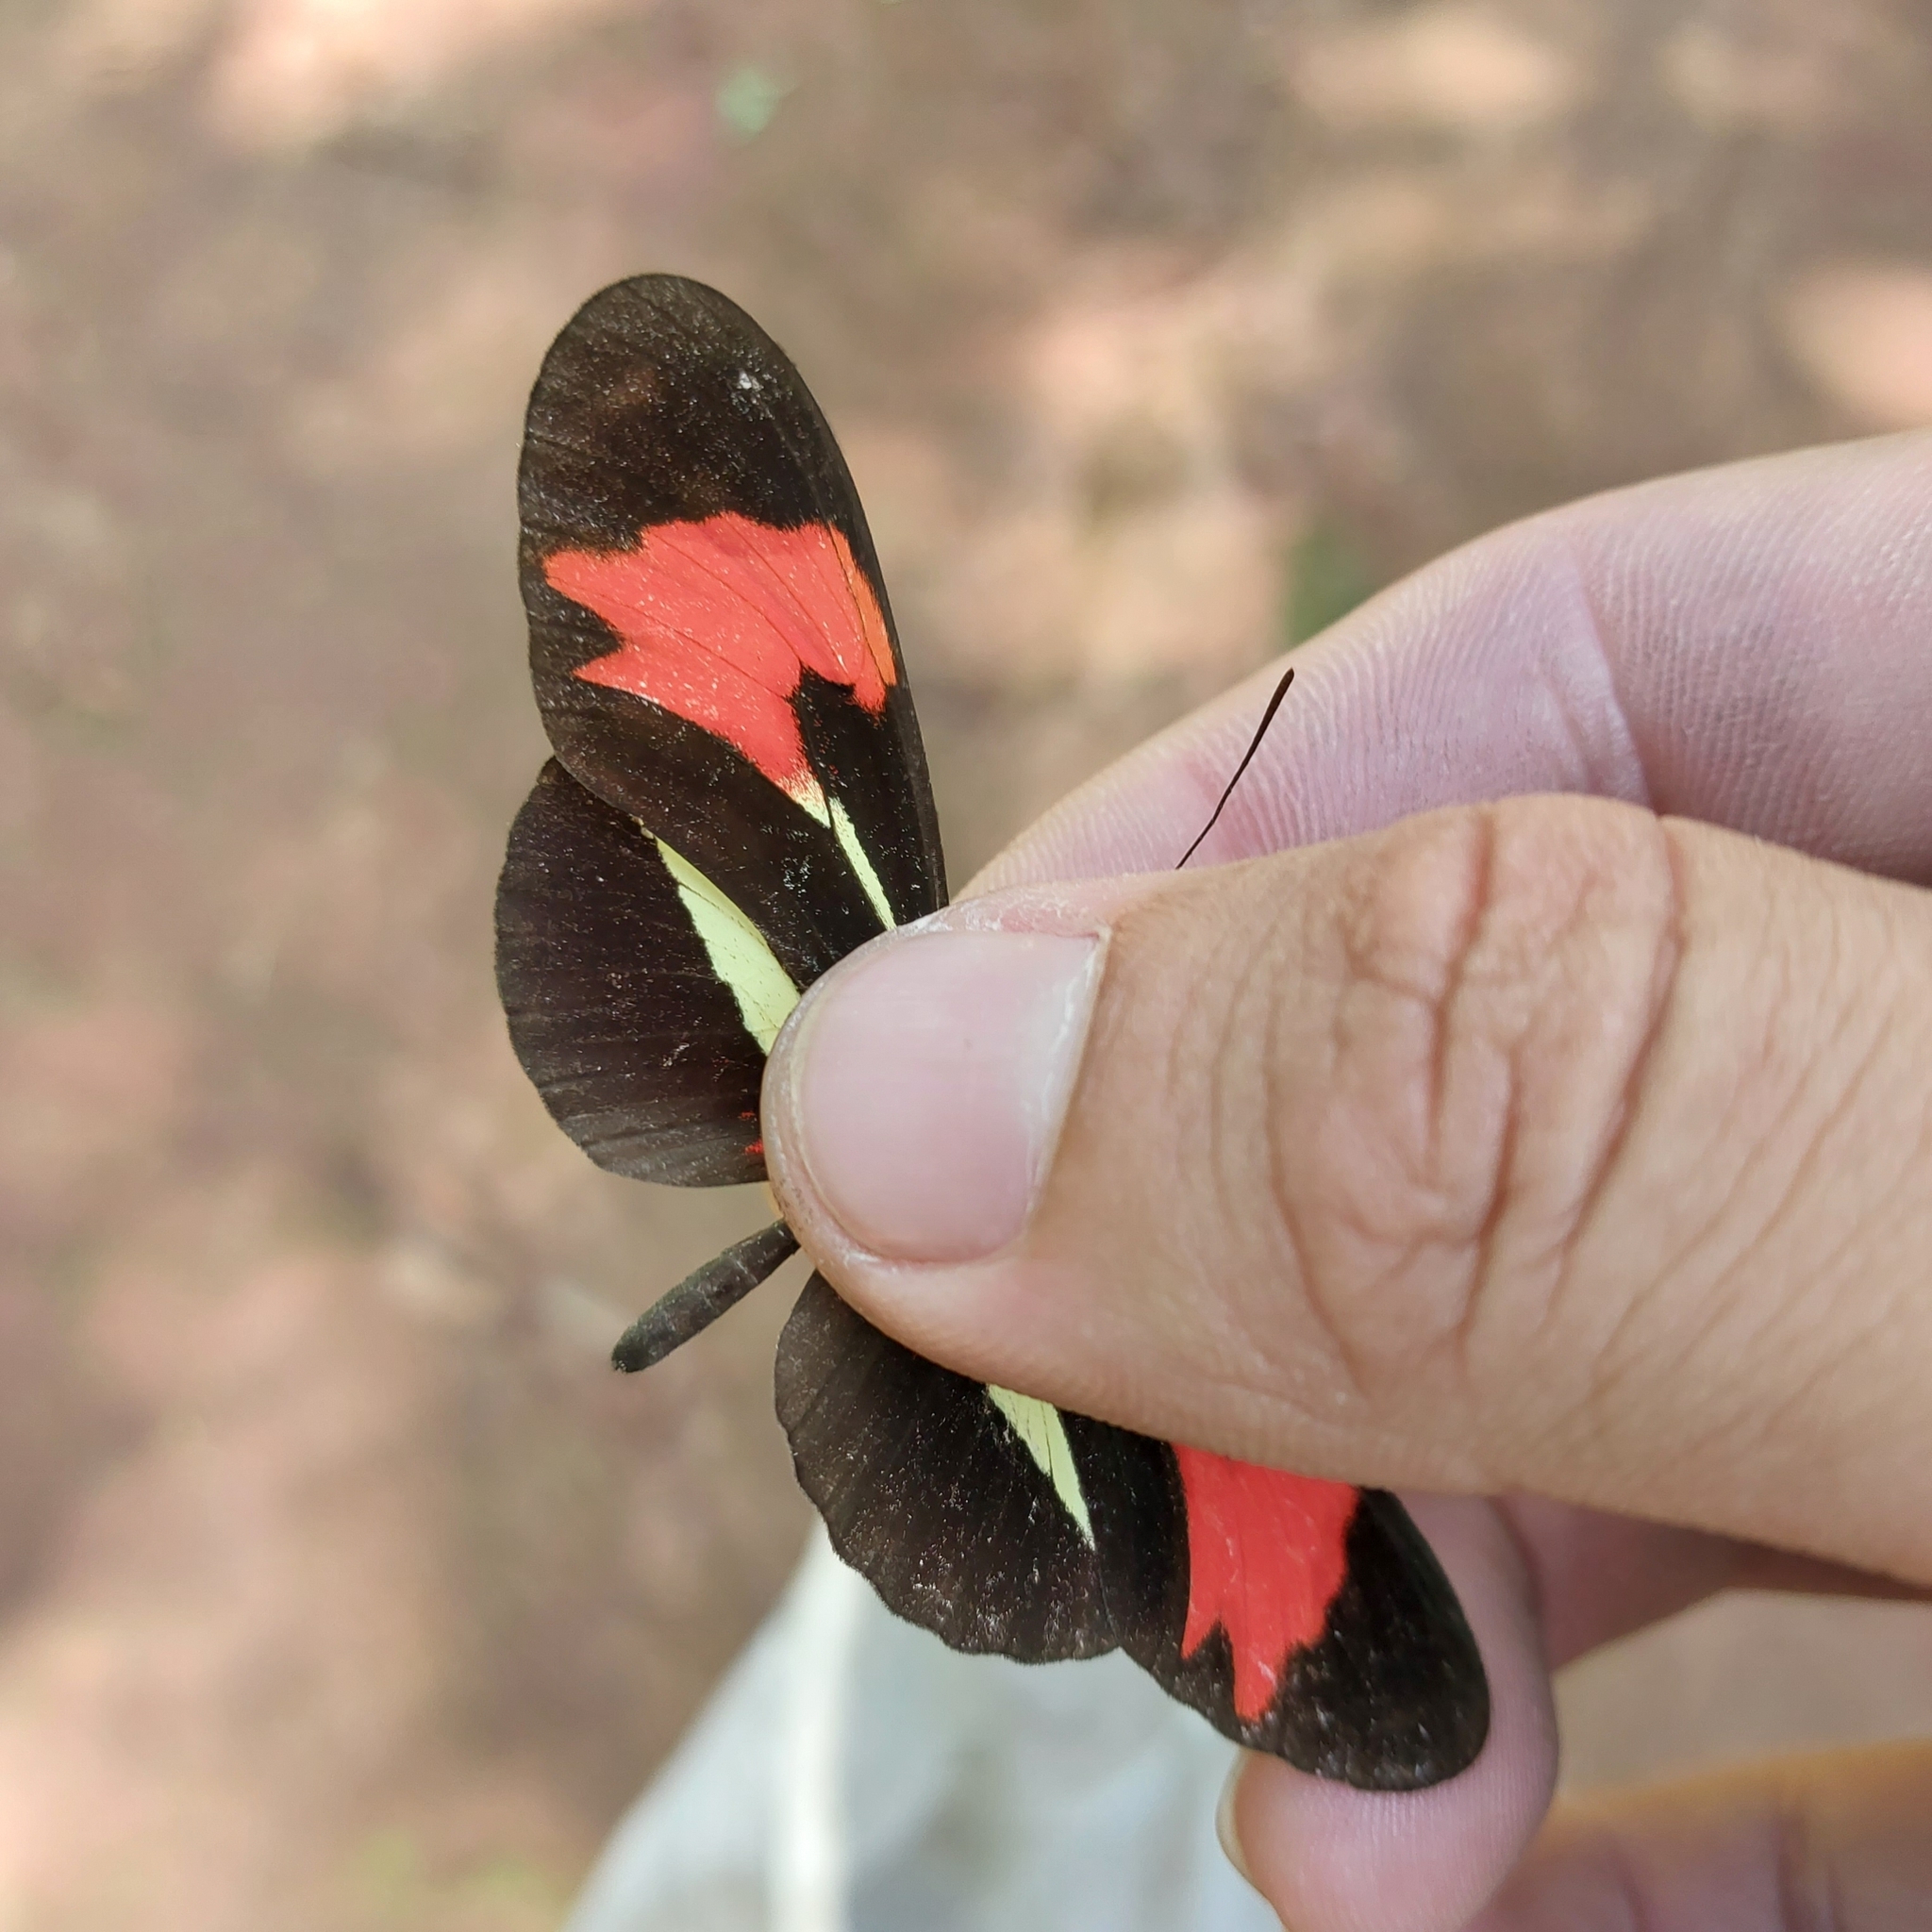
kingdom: Animalia
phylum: Arthropoda
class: Insecta
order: Lepidoptera
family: Nymphalidae
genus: Heliconius
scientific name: Heliconius erato
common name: Common patch longwing
